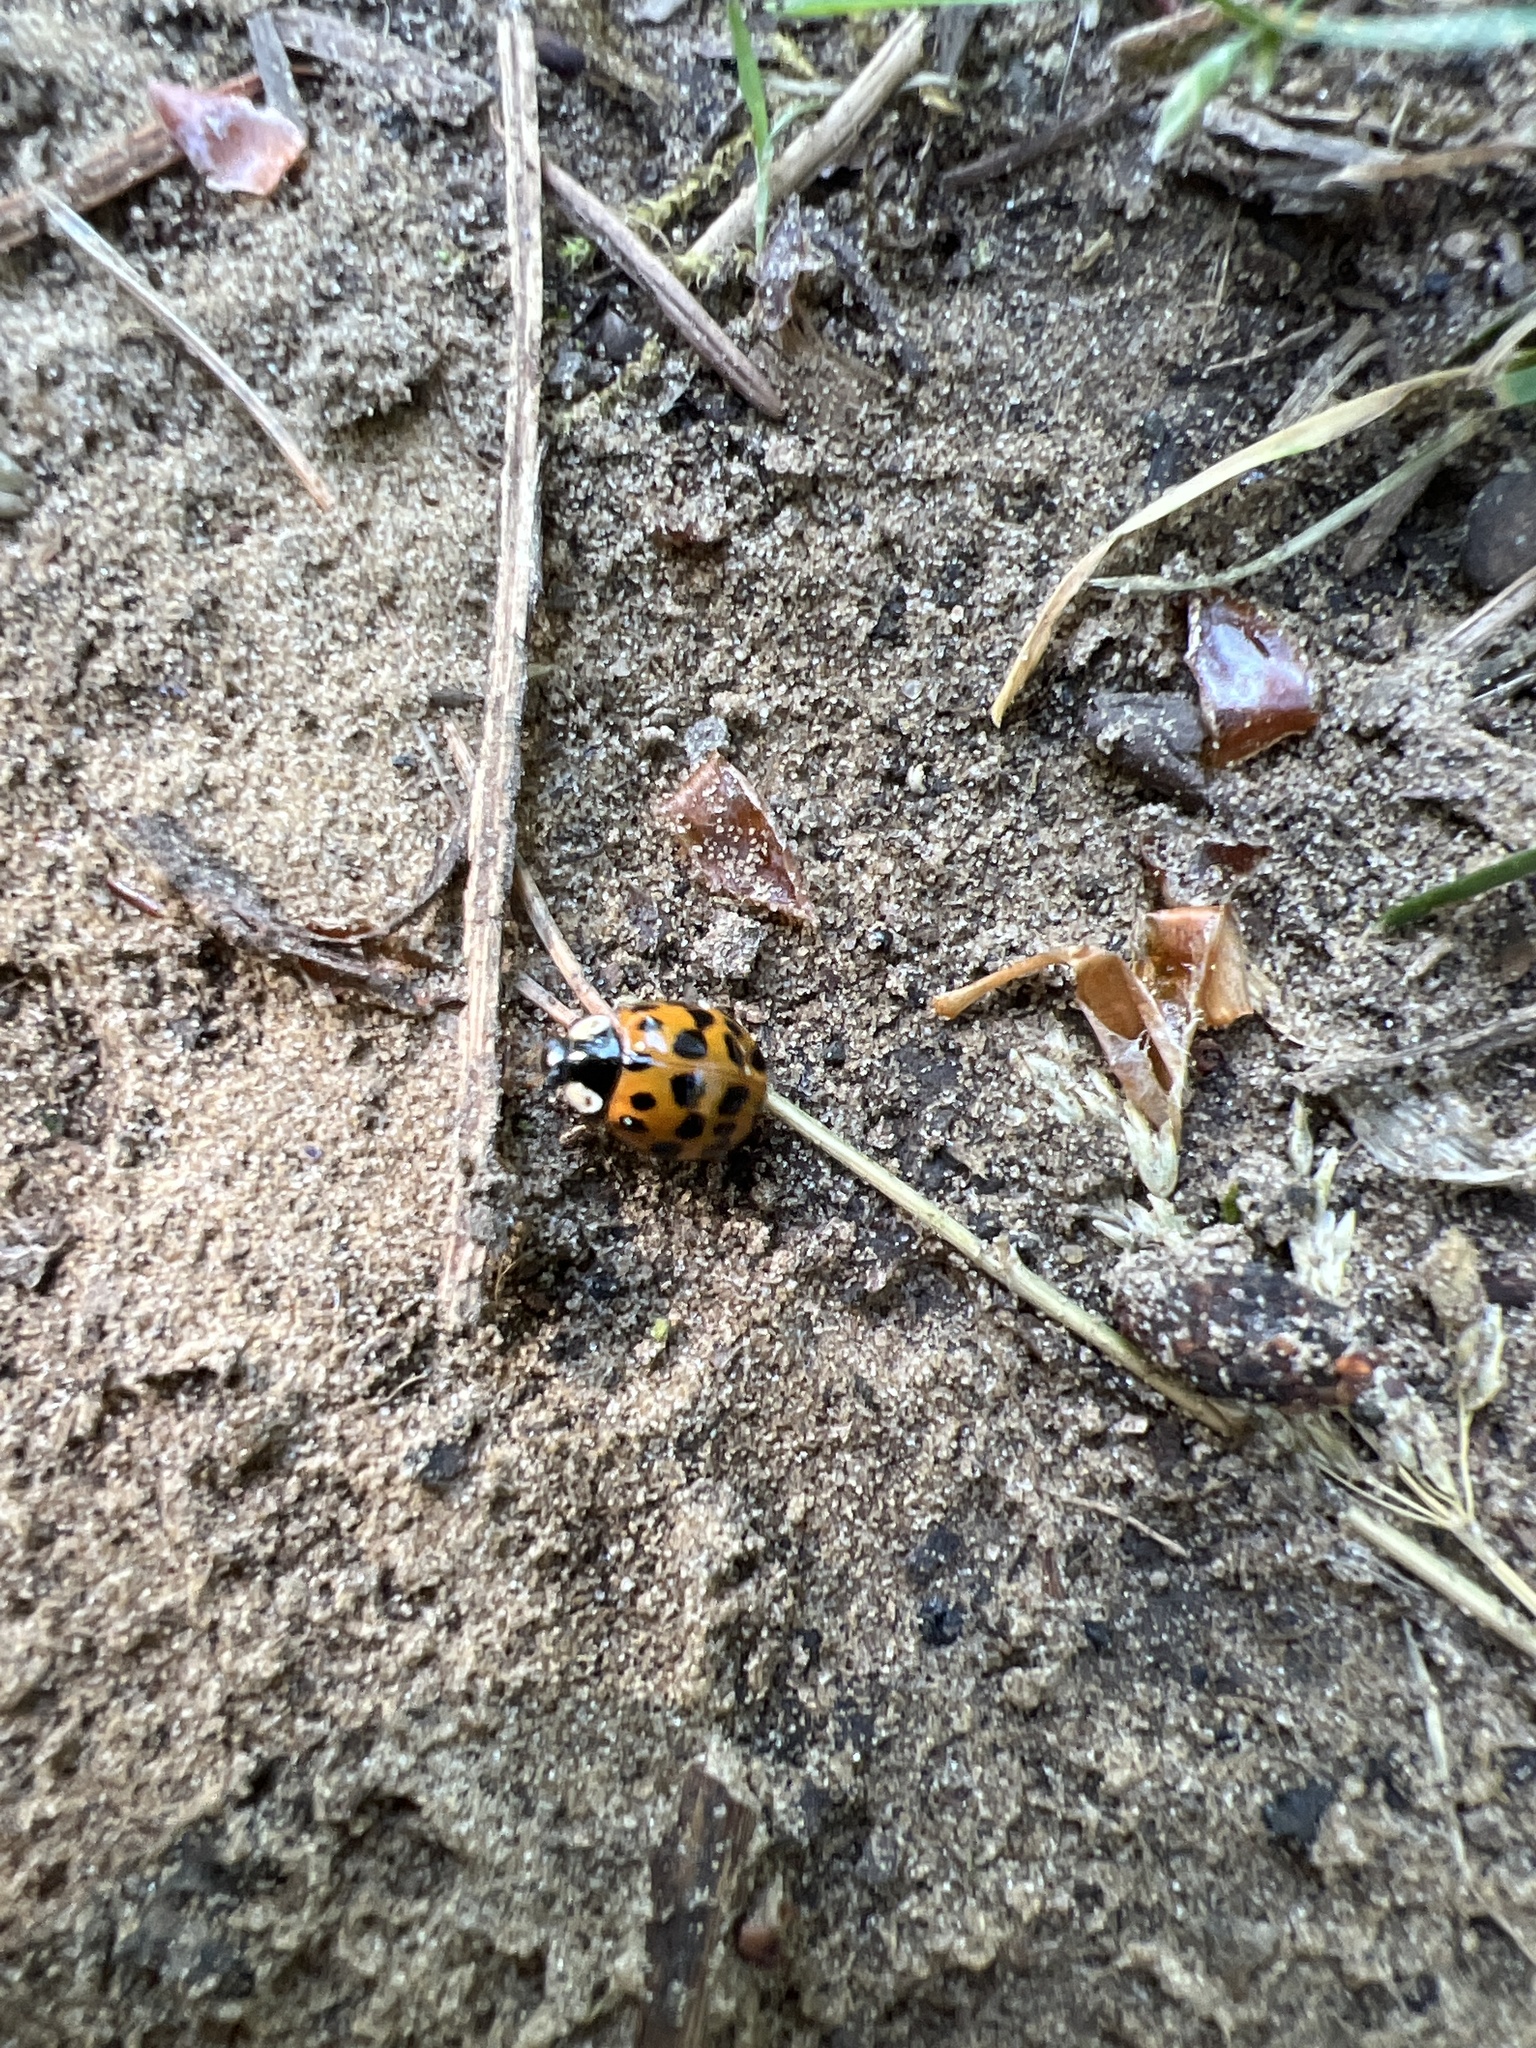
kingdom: Animalia
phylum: Arthropoda
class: Insecta
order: Coleoptera
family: Coccinellidae
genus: Harmonia
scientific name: Harmonia axyridis
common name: Harlequin ladybird
